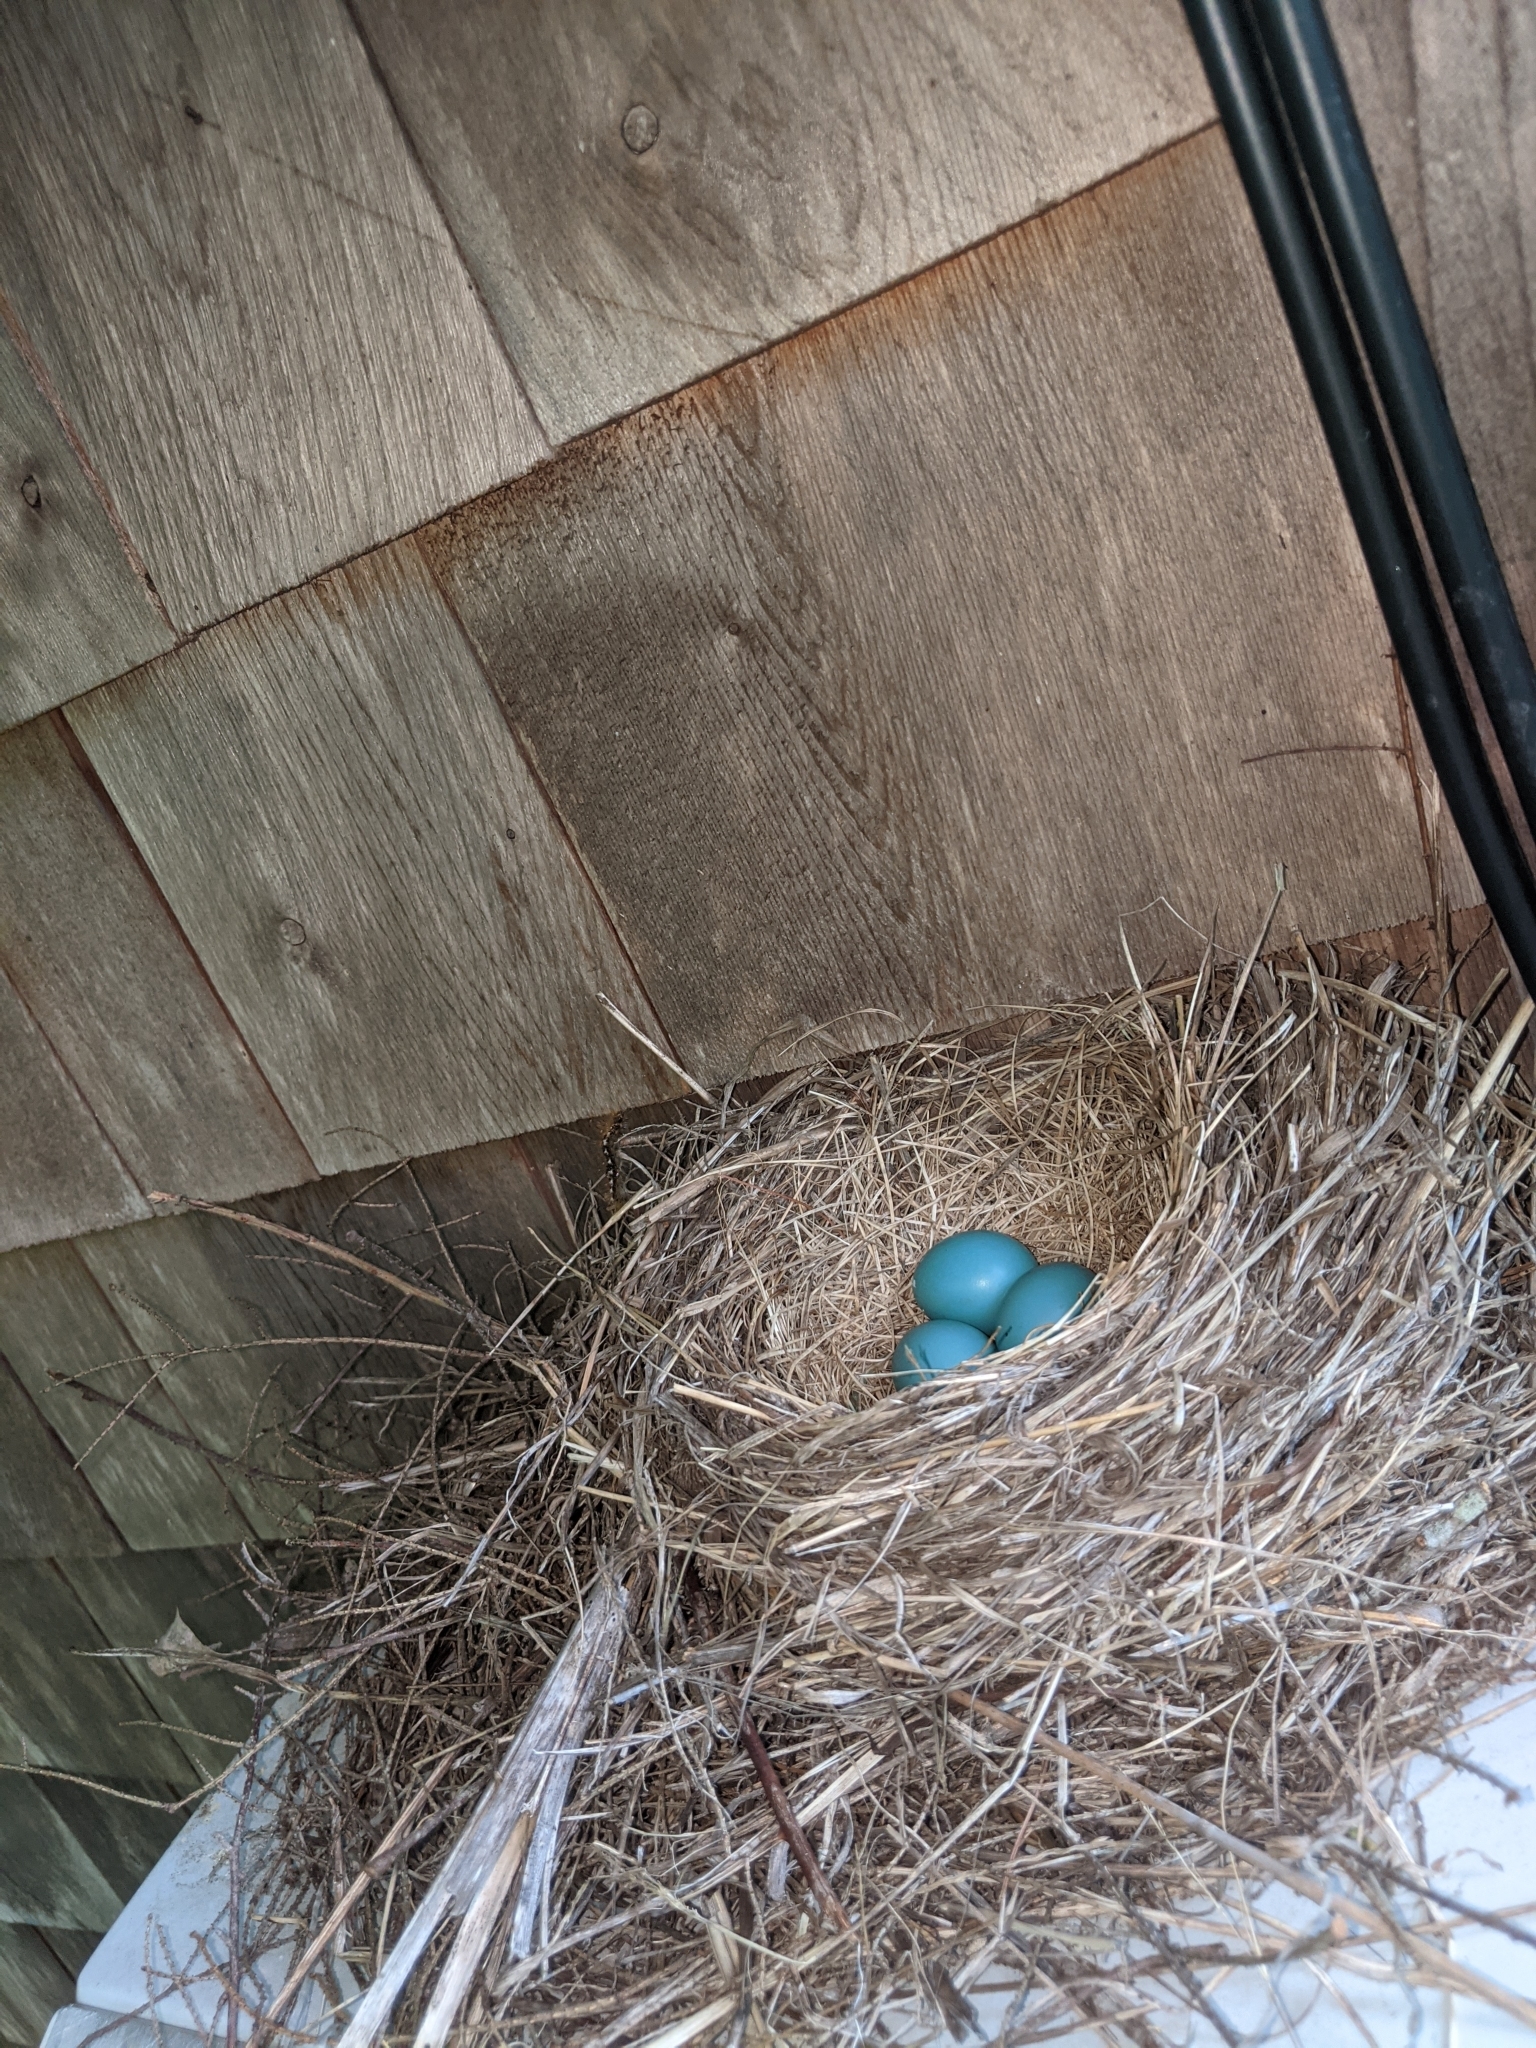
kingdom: Animalia
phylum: Chordata
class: Aves
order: Passeriformes
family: Turdidae
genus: Turdus
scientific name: Turdus migratorius
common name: American robin
